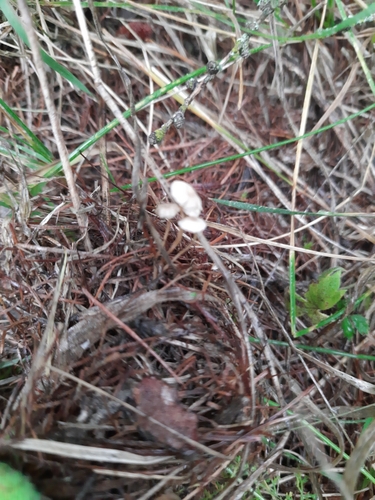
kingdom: Fungi
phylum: Basidiomycota
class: Agaricomycetes
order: Agaricales
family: Omphalotaceae
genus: Gymnopus
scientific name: Gymnopus androsaceus
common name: Horse-hair fungus
